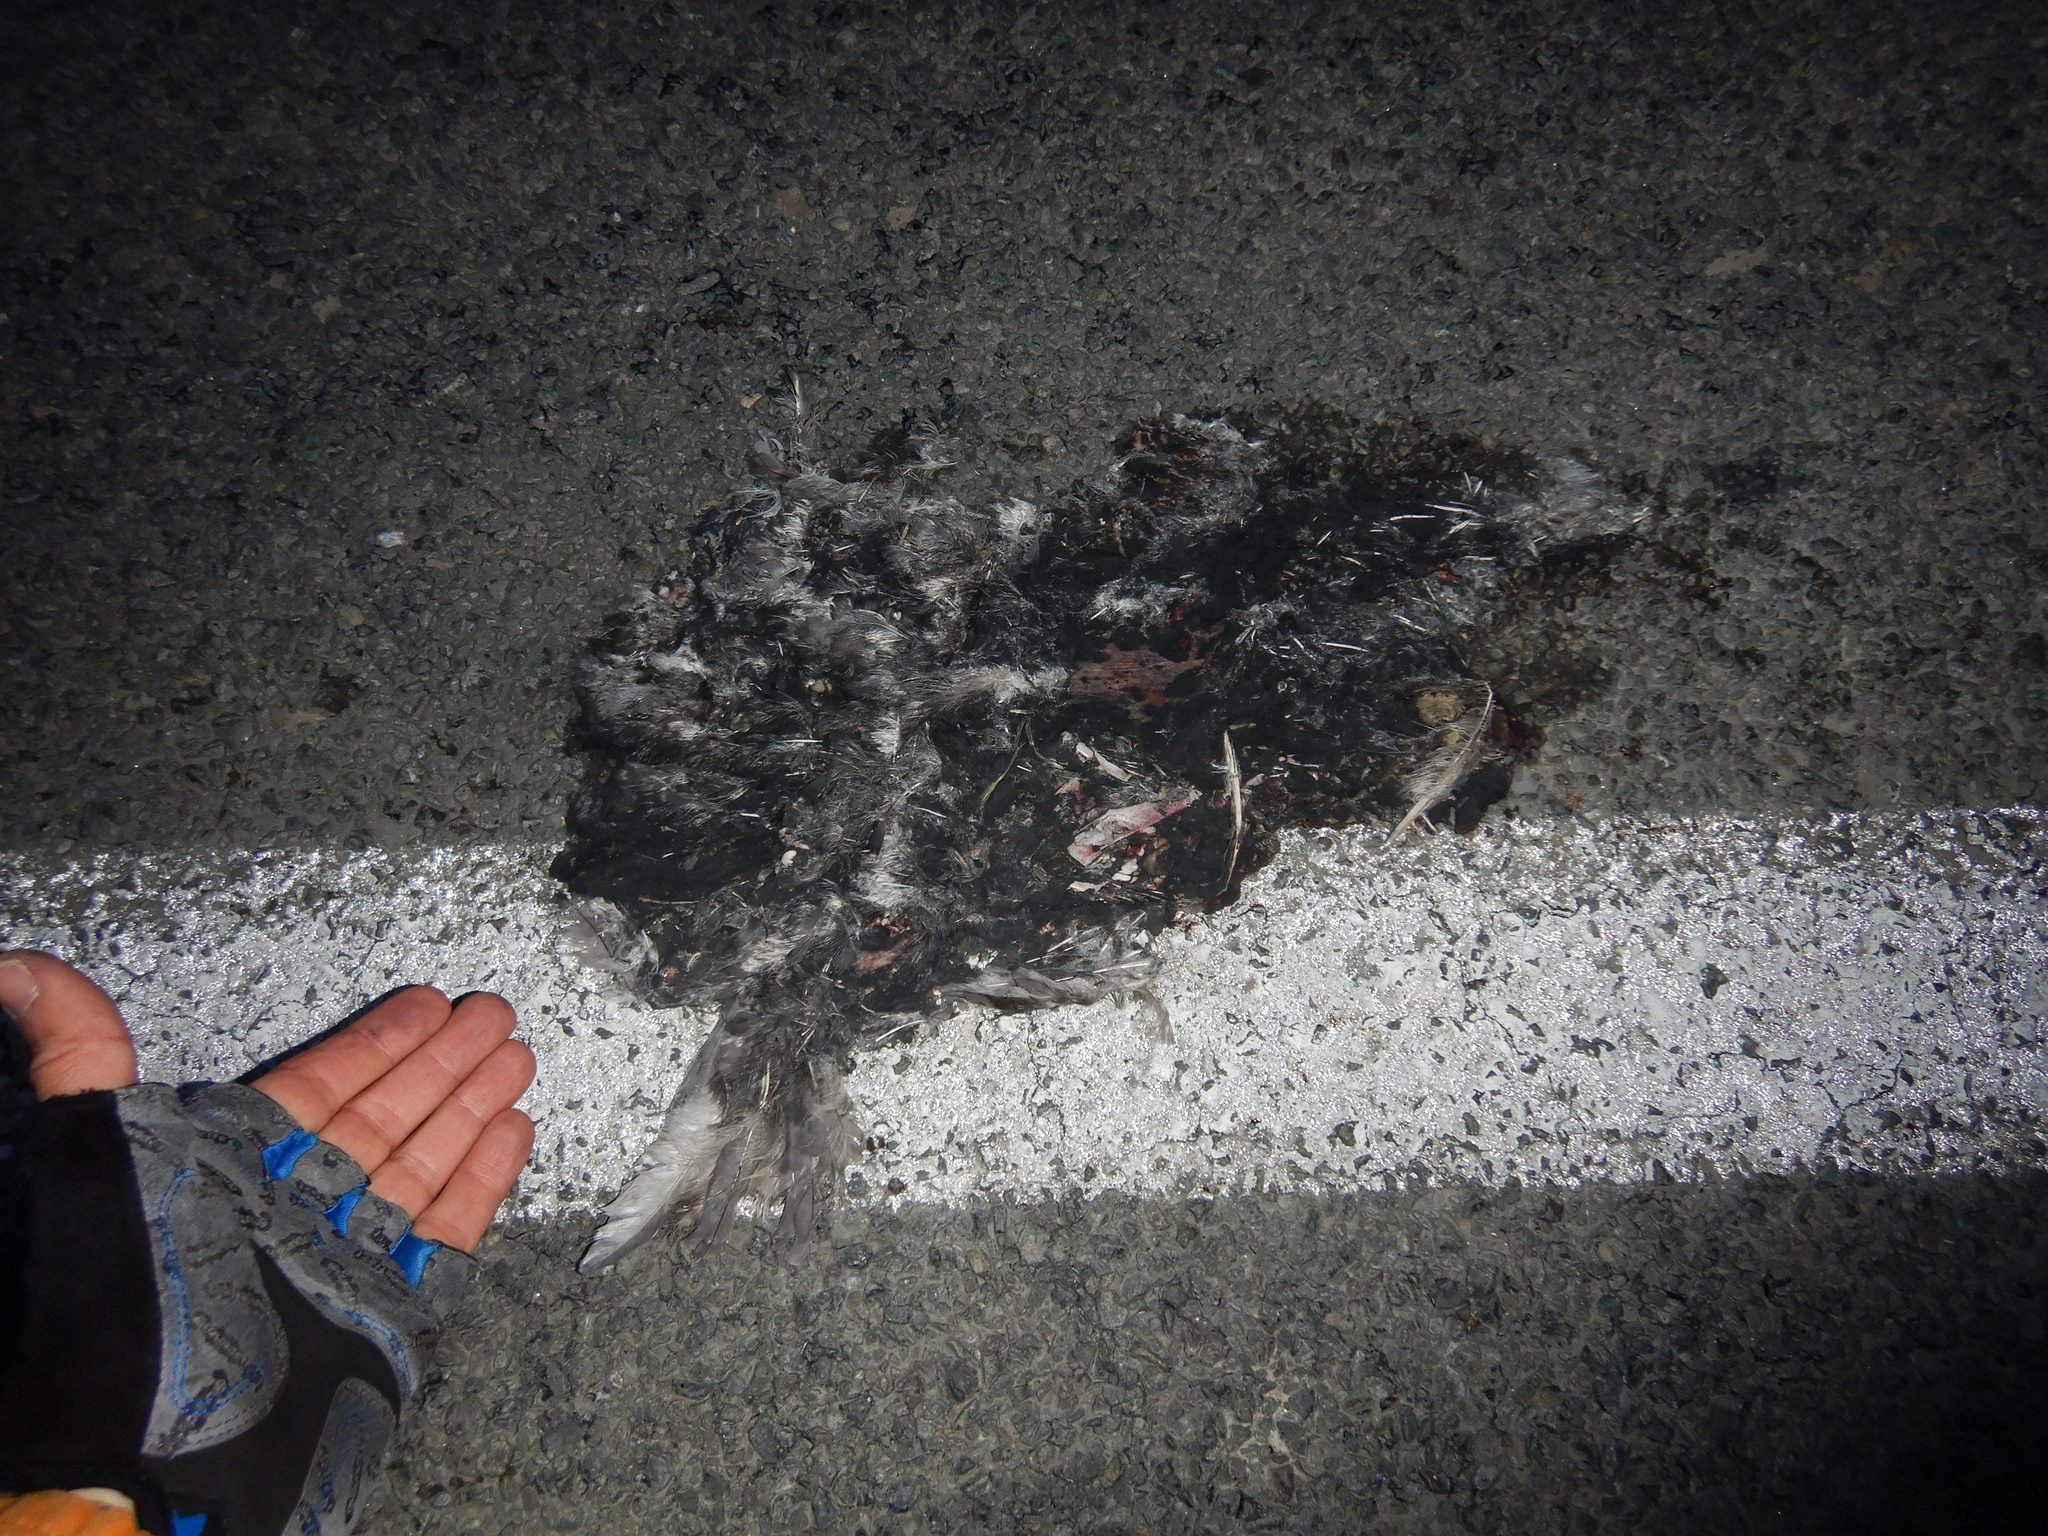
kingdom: Animalia
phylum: Chordata
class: Aves
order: Columbiformes
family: Columbidae
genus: Columba
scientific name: Columba livia
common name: Rock pigeon
